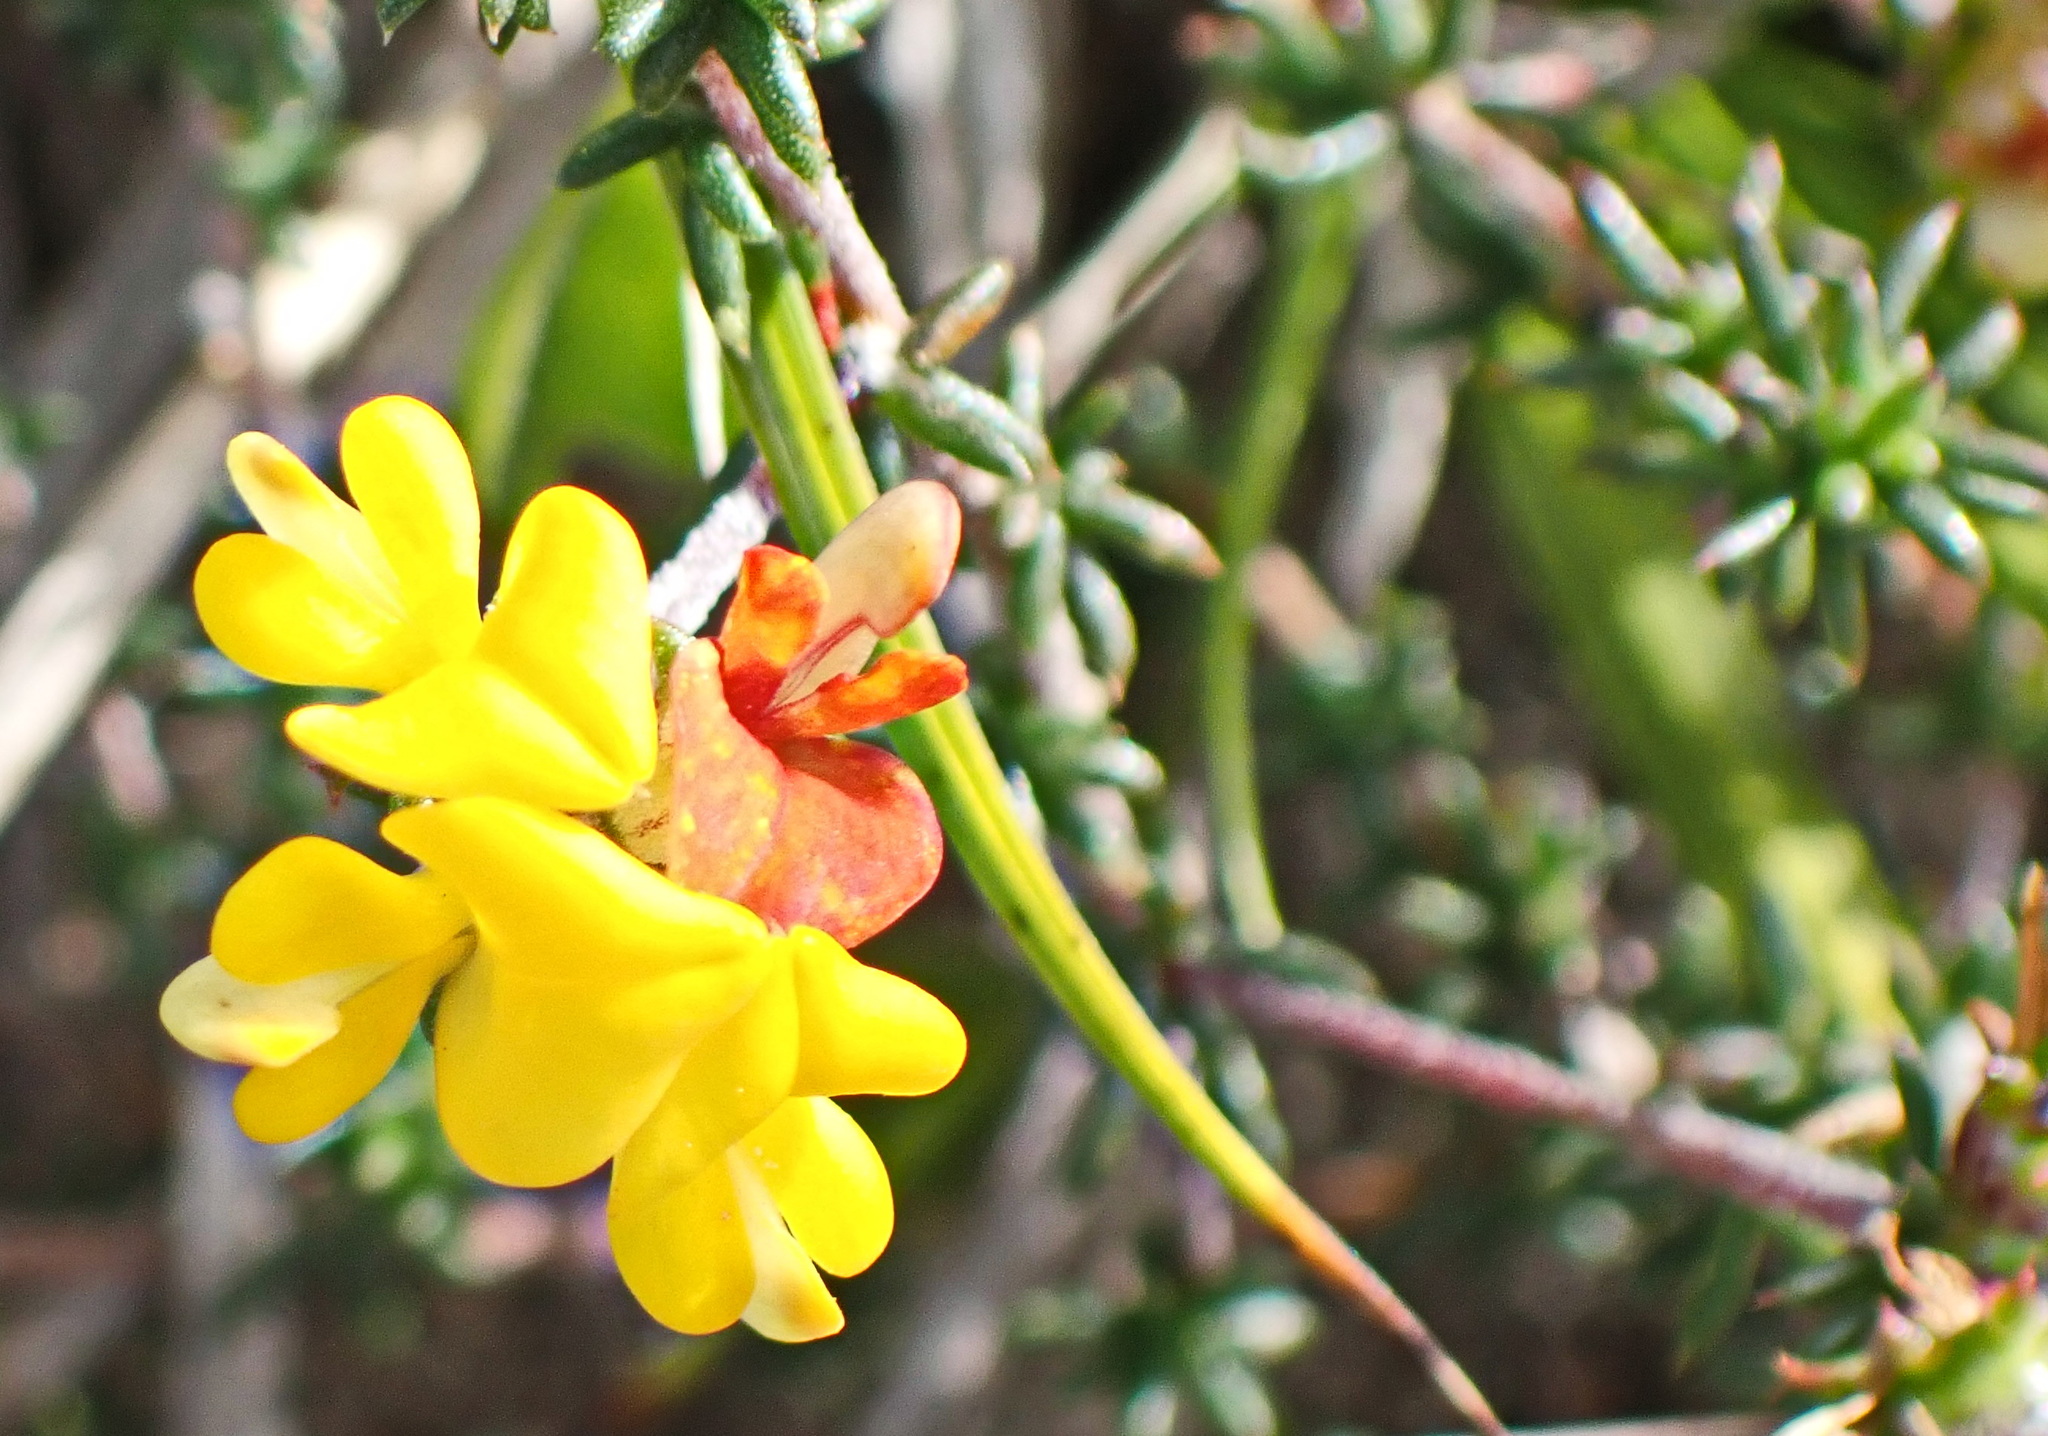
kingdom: Plantae
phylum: Tracheophyta
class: Magnoliopsida
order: Fabales
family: Fabaceae
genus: Aspalathus
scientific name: Aspalathus crassisepala
